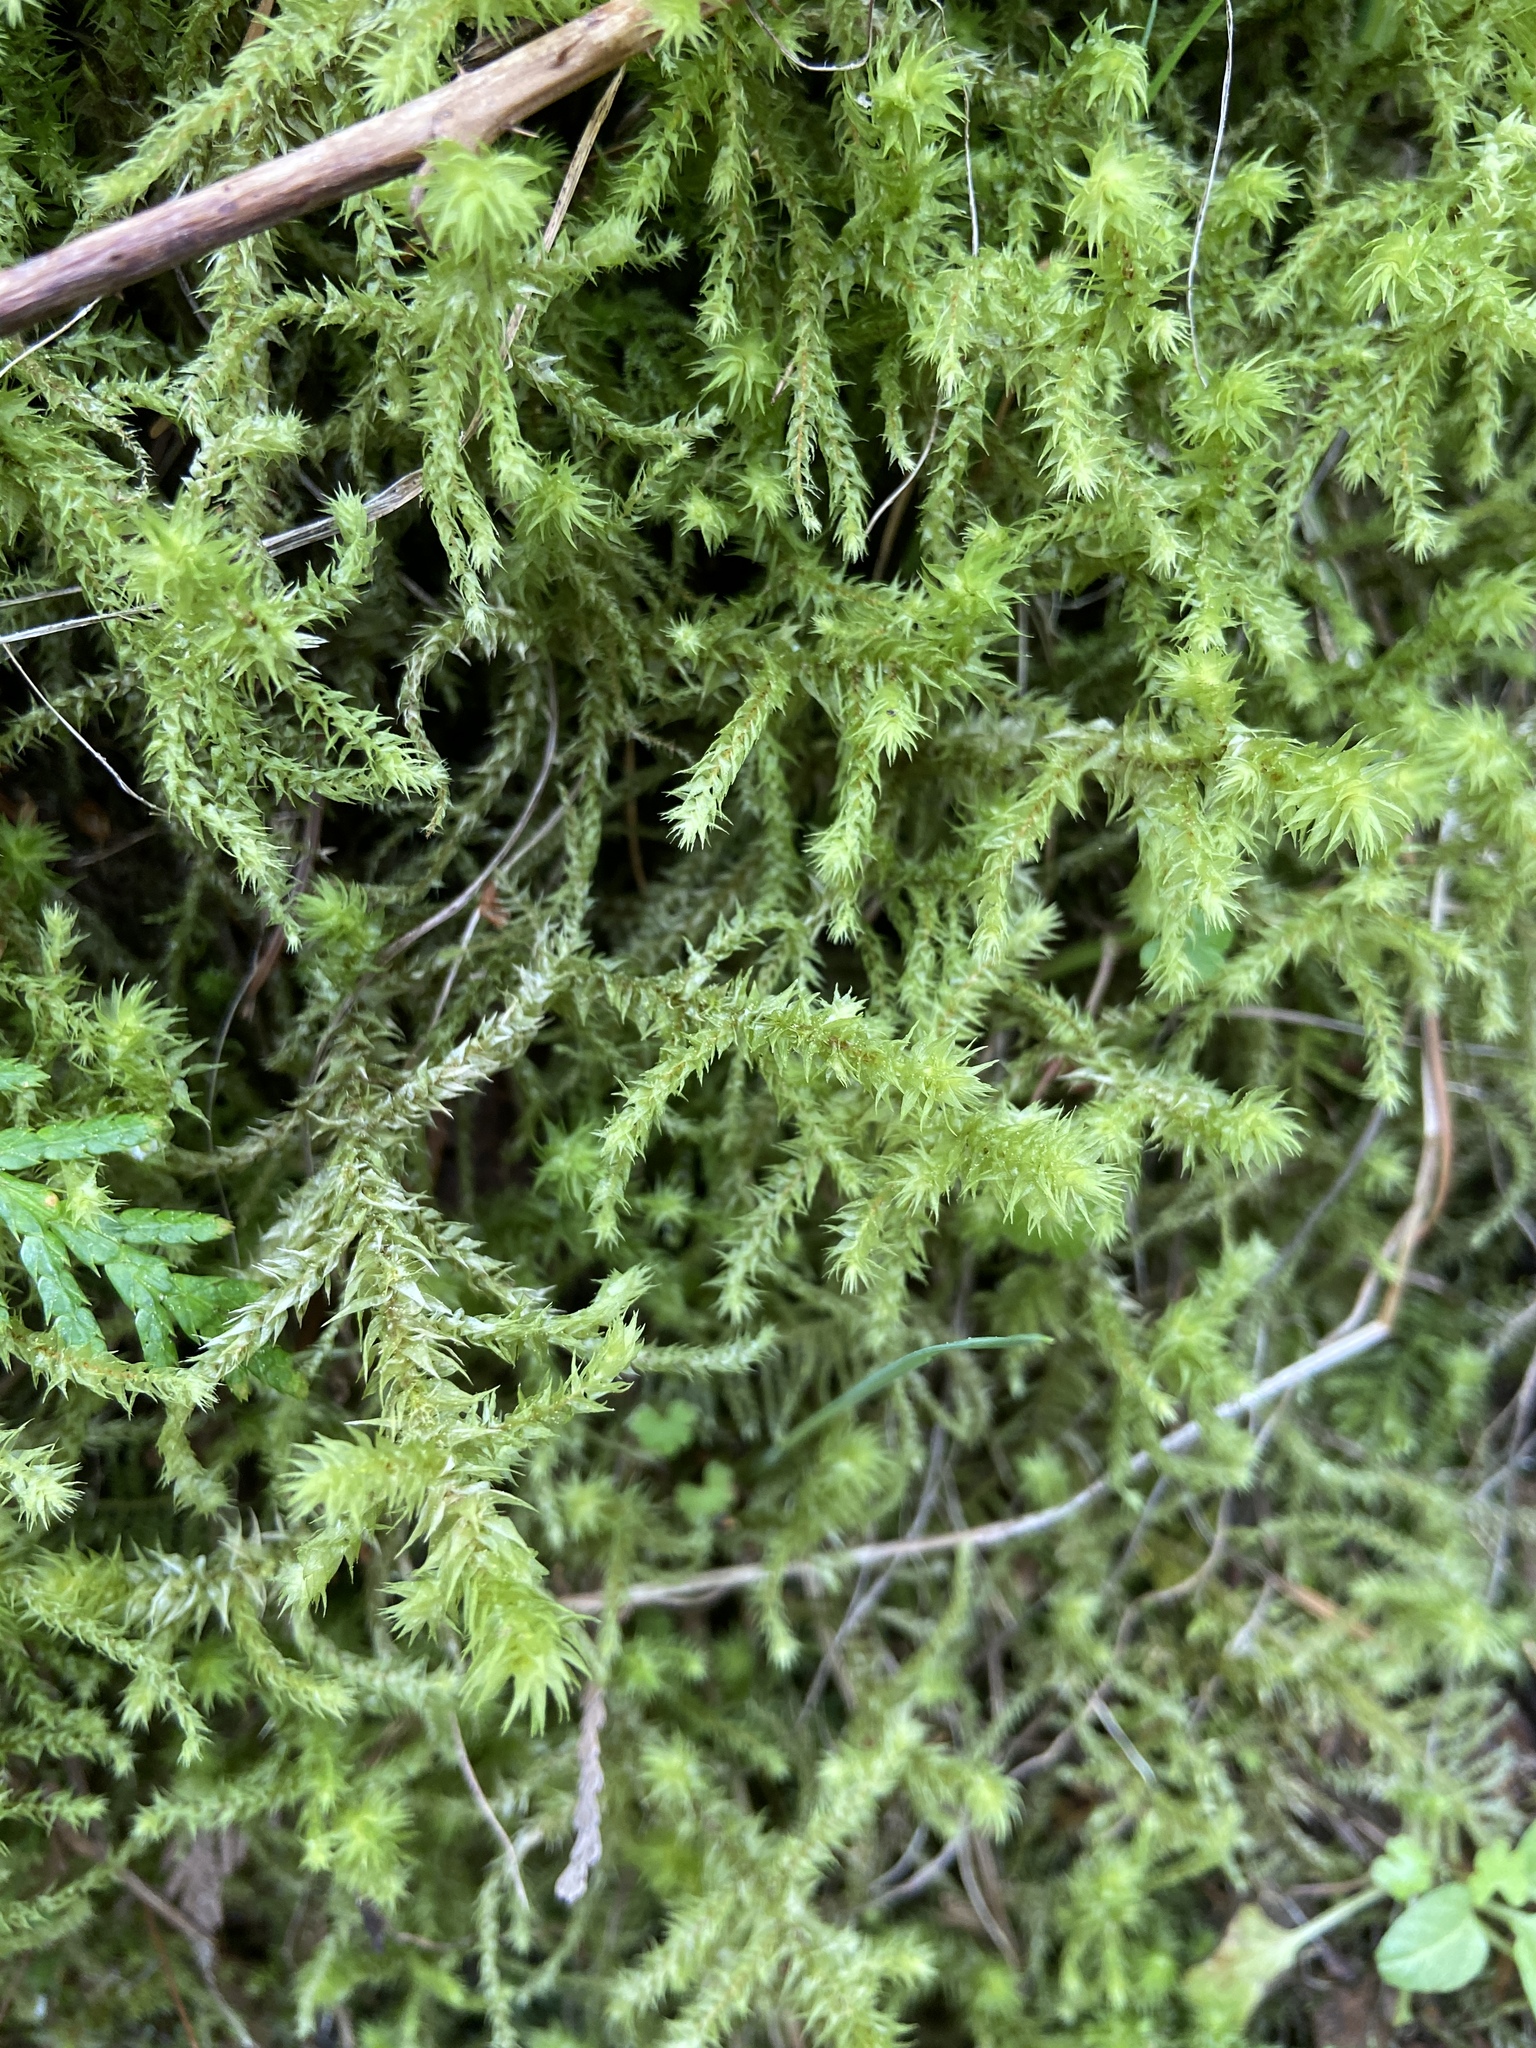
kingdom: Plantae
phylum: Bryophyta
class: Bryopsida
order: Hypnales
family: Hylocomiaceae
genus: Hylocomiadelphus
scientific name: Hylocomiadelphus triquetrus
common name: Rough goose neck moss
